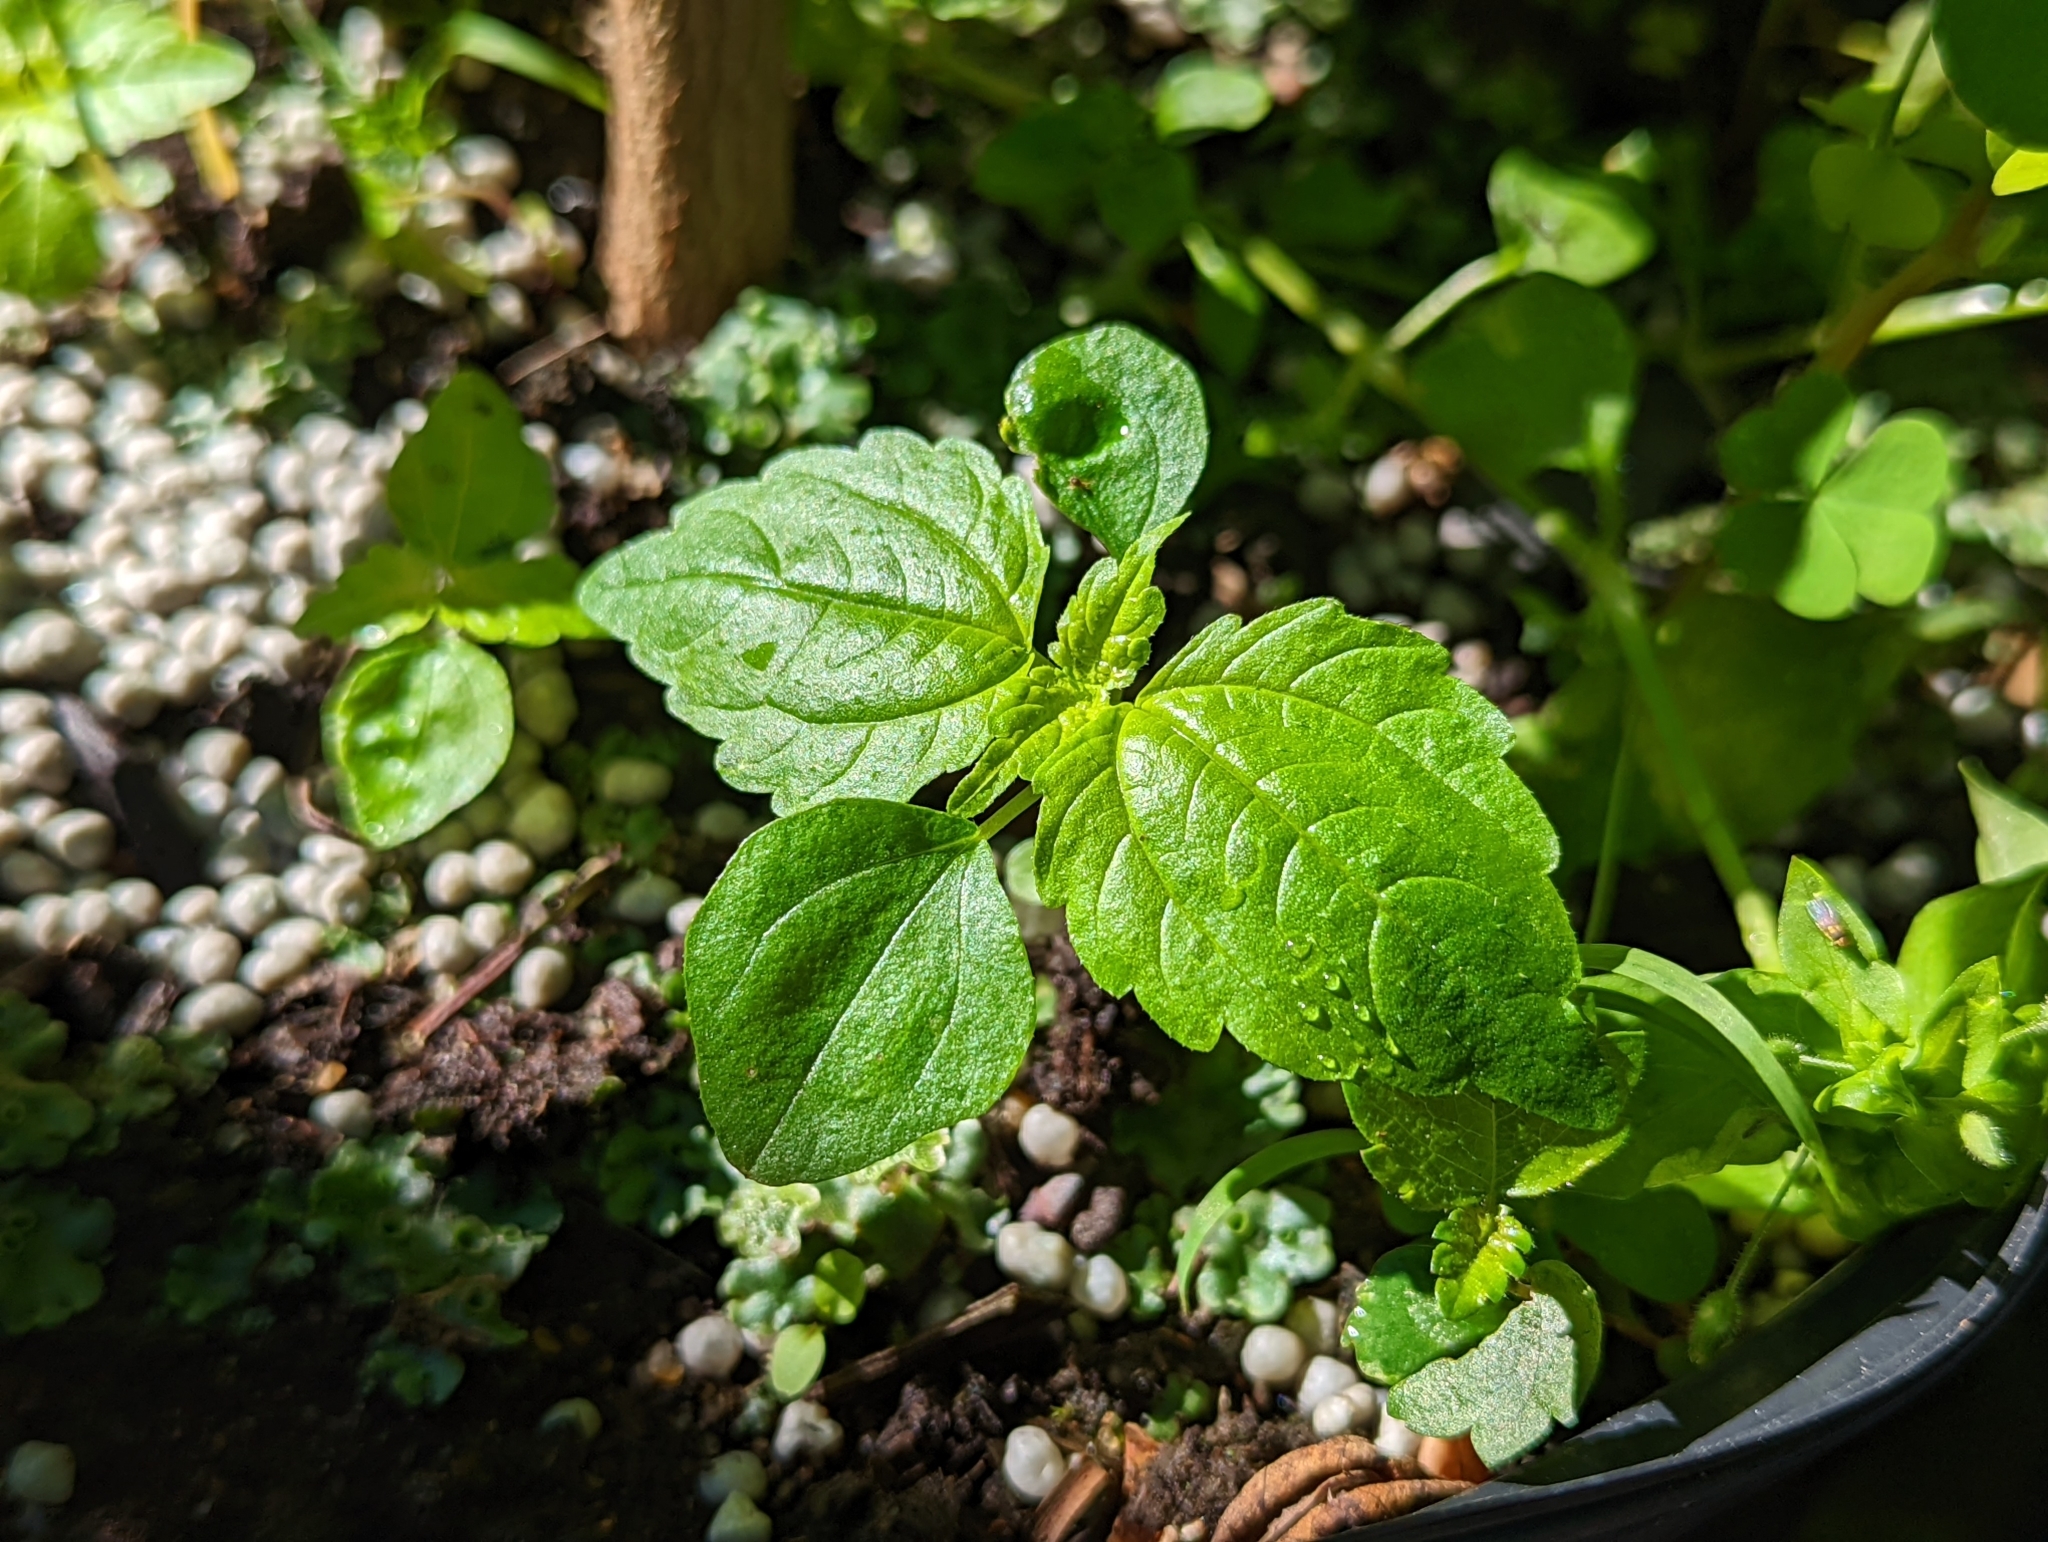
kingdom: Plantae
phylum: Tracheophyta
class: Magnoliopsida
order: Rosales
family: Urticaceae
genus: Pilea
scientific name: Pilea pumila
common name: Clearweed
